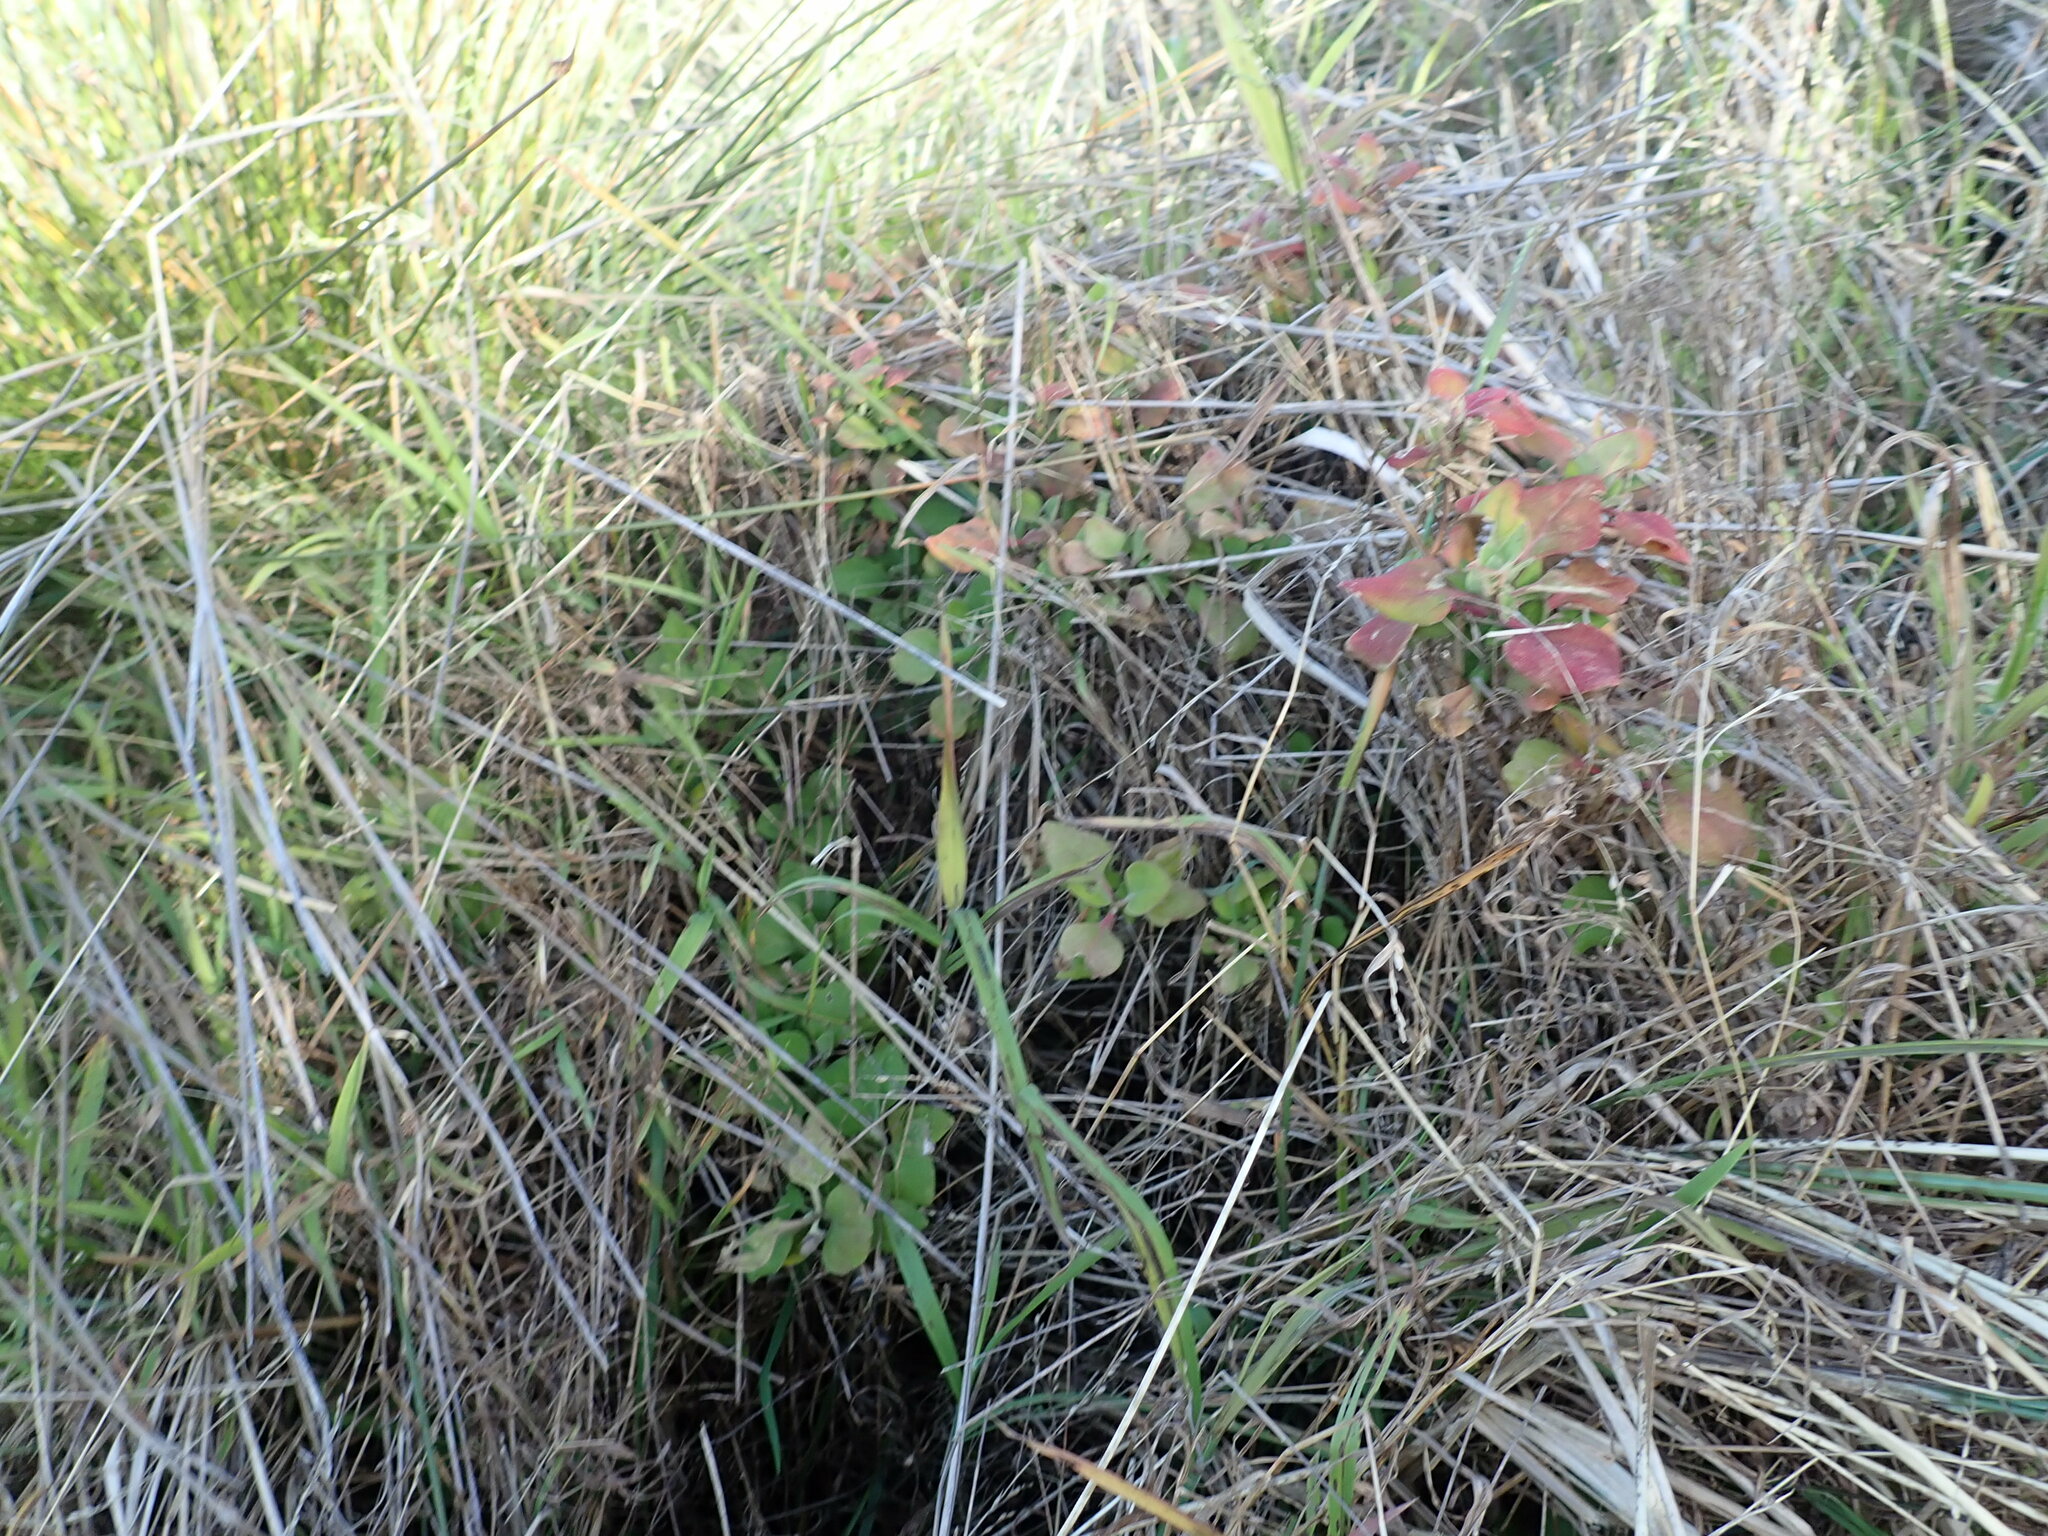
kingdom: Plantae
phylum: Tracheophyta
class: Magnoliopsida
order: Caryophyllales
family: Aizoaceae
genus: Tetragonia
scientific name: Tetragonia implexicoma
